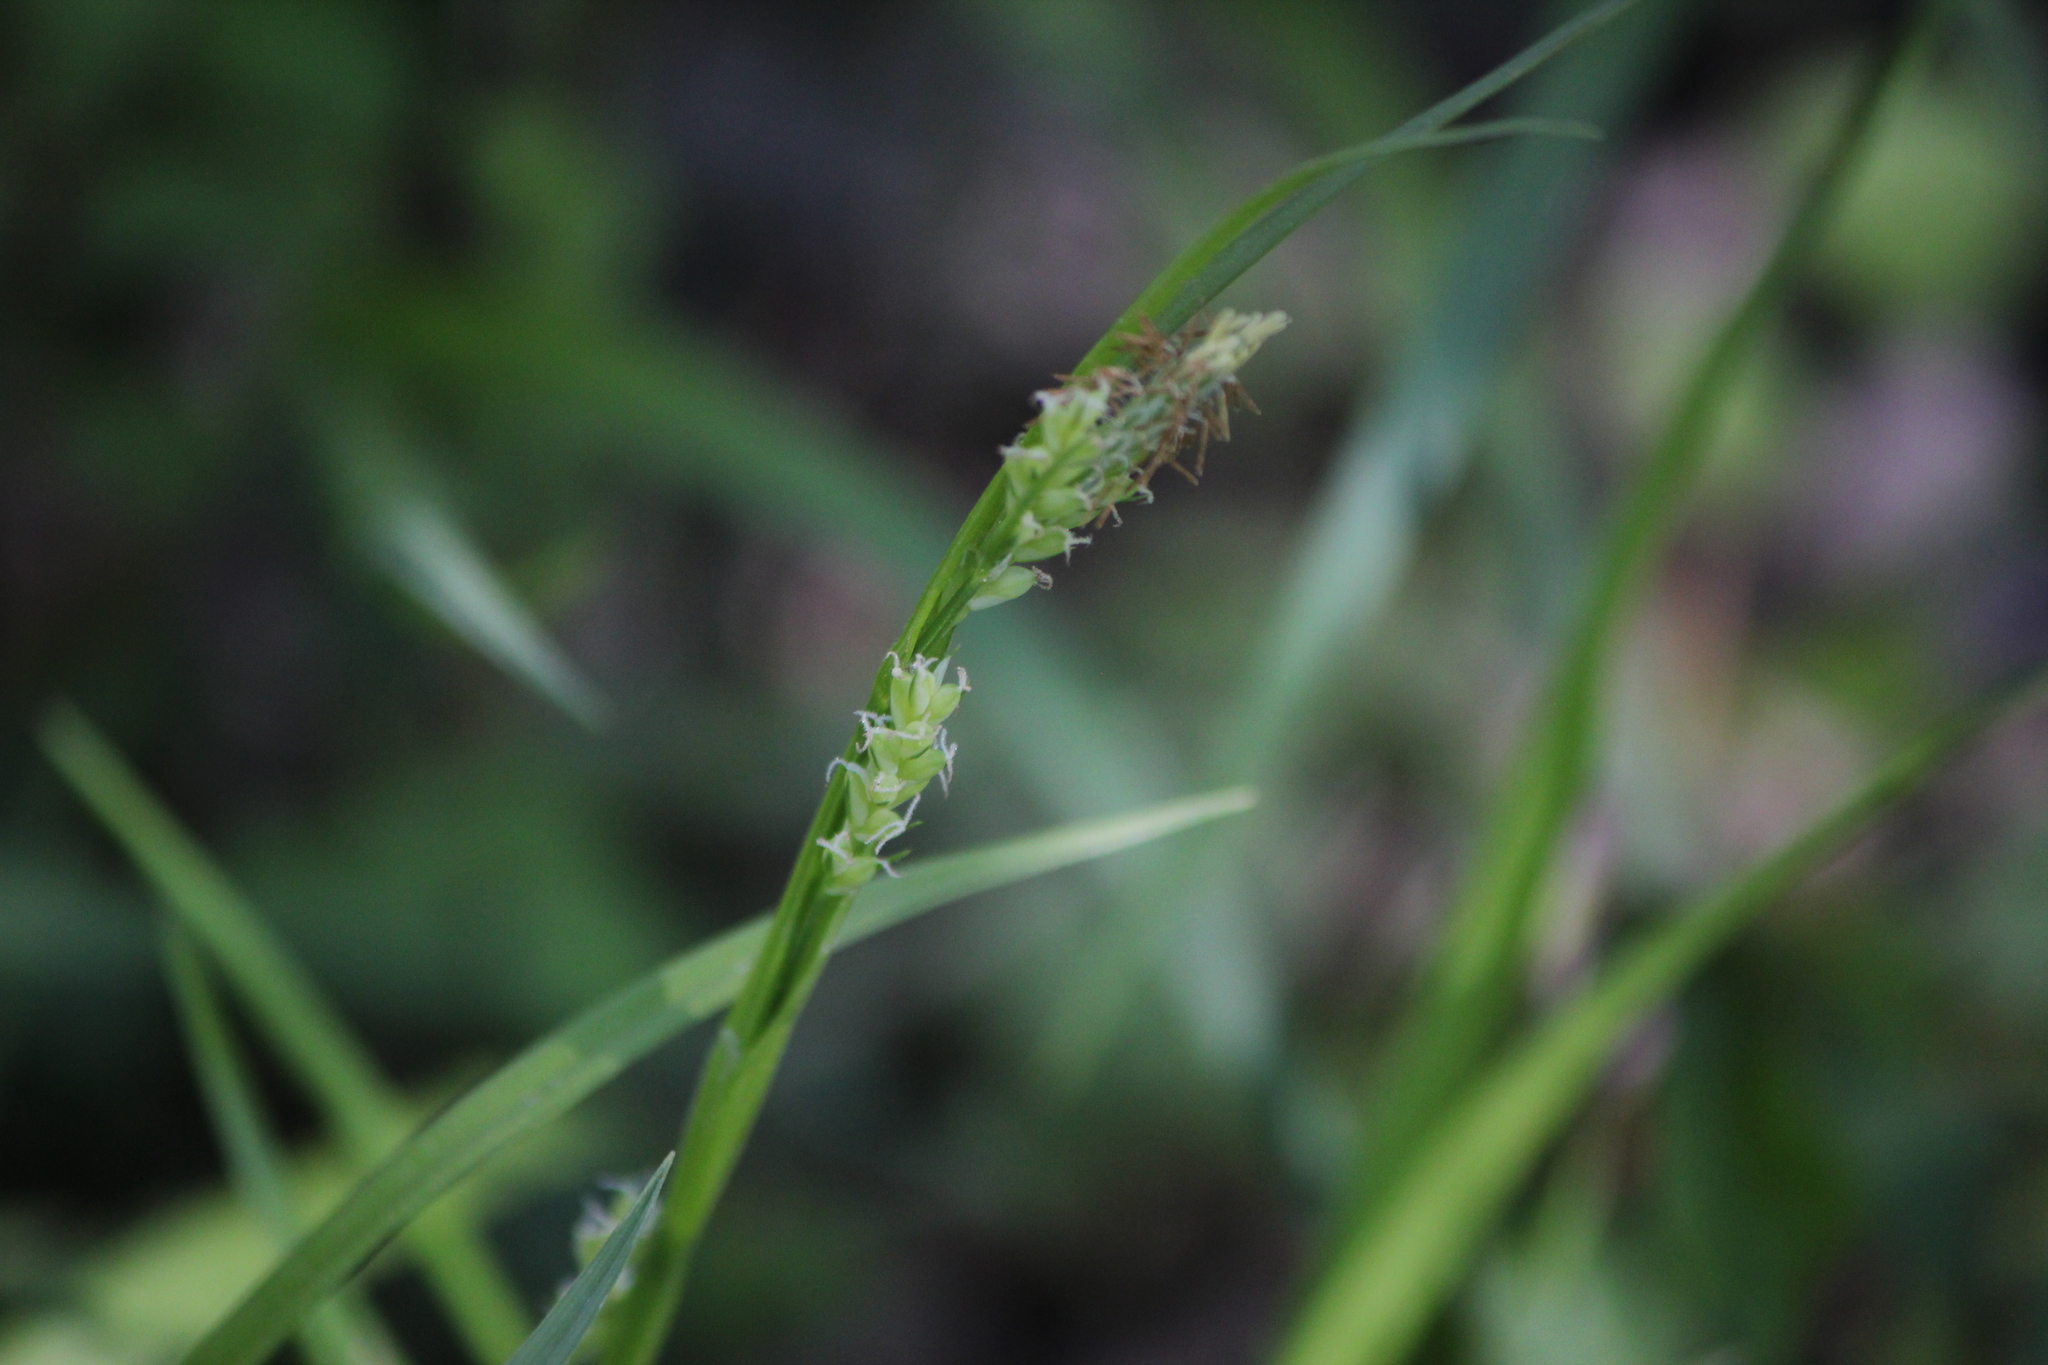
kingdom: Plantae
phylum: Tracheophyta
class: Liliopsida
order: Poales
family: Cyperaceae
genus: Carex
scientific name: Carex leptonervia
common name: Few-nerved wood sedge
